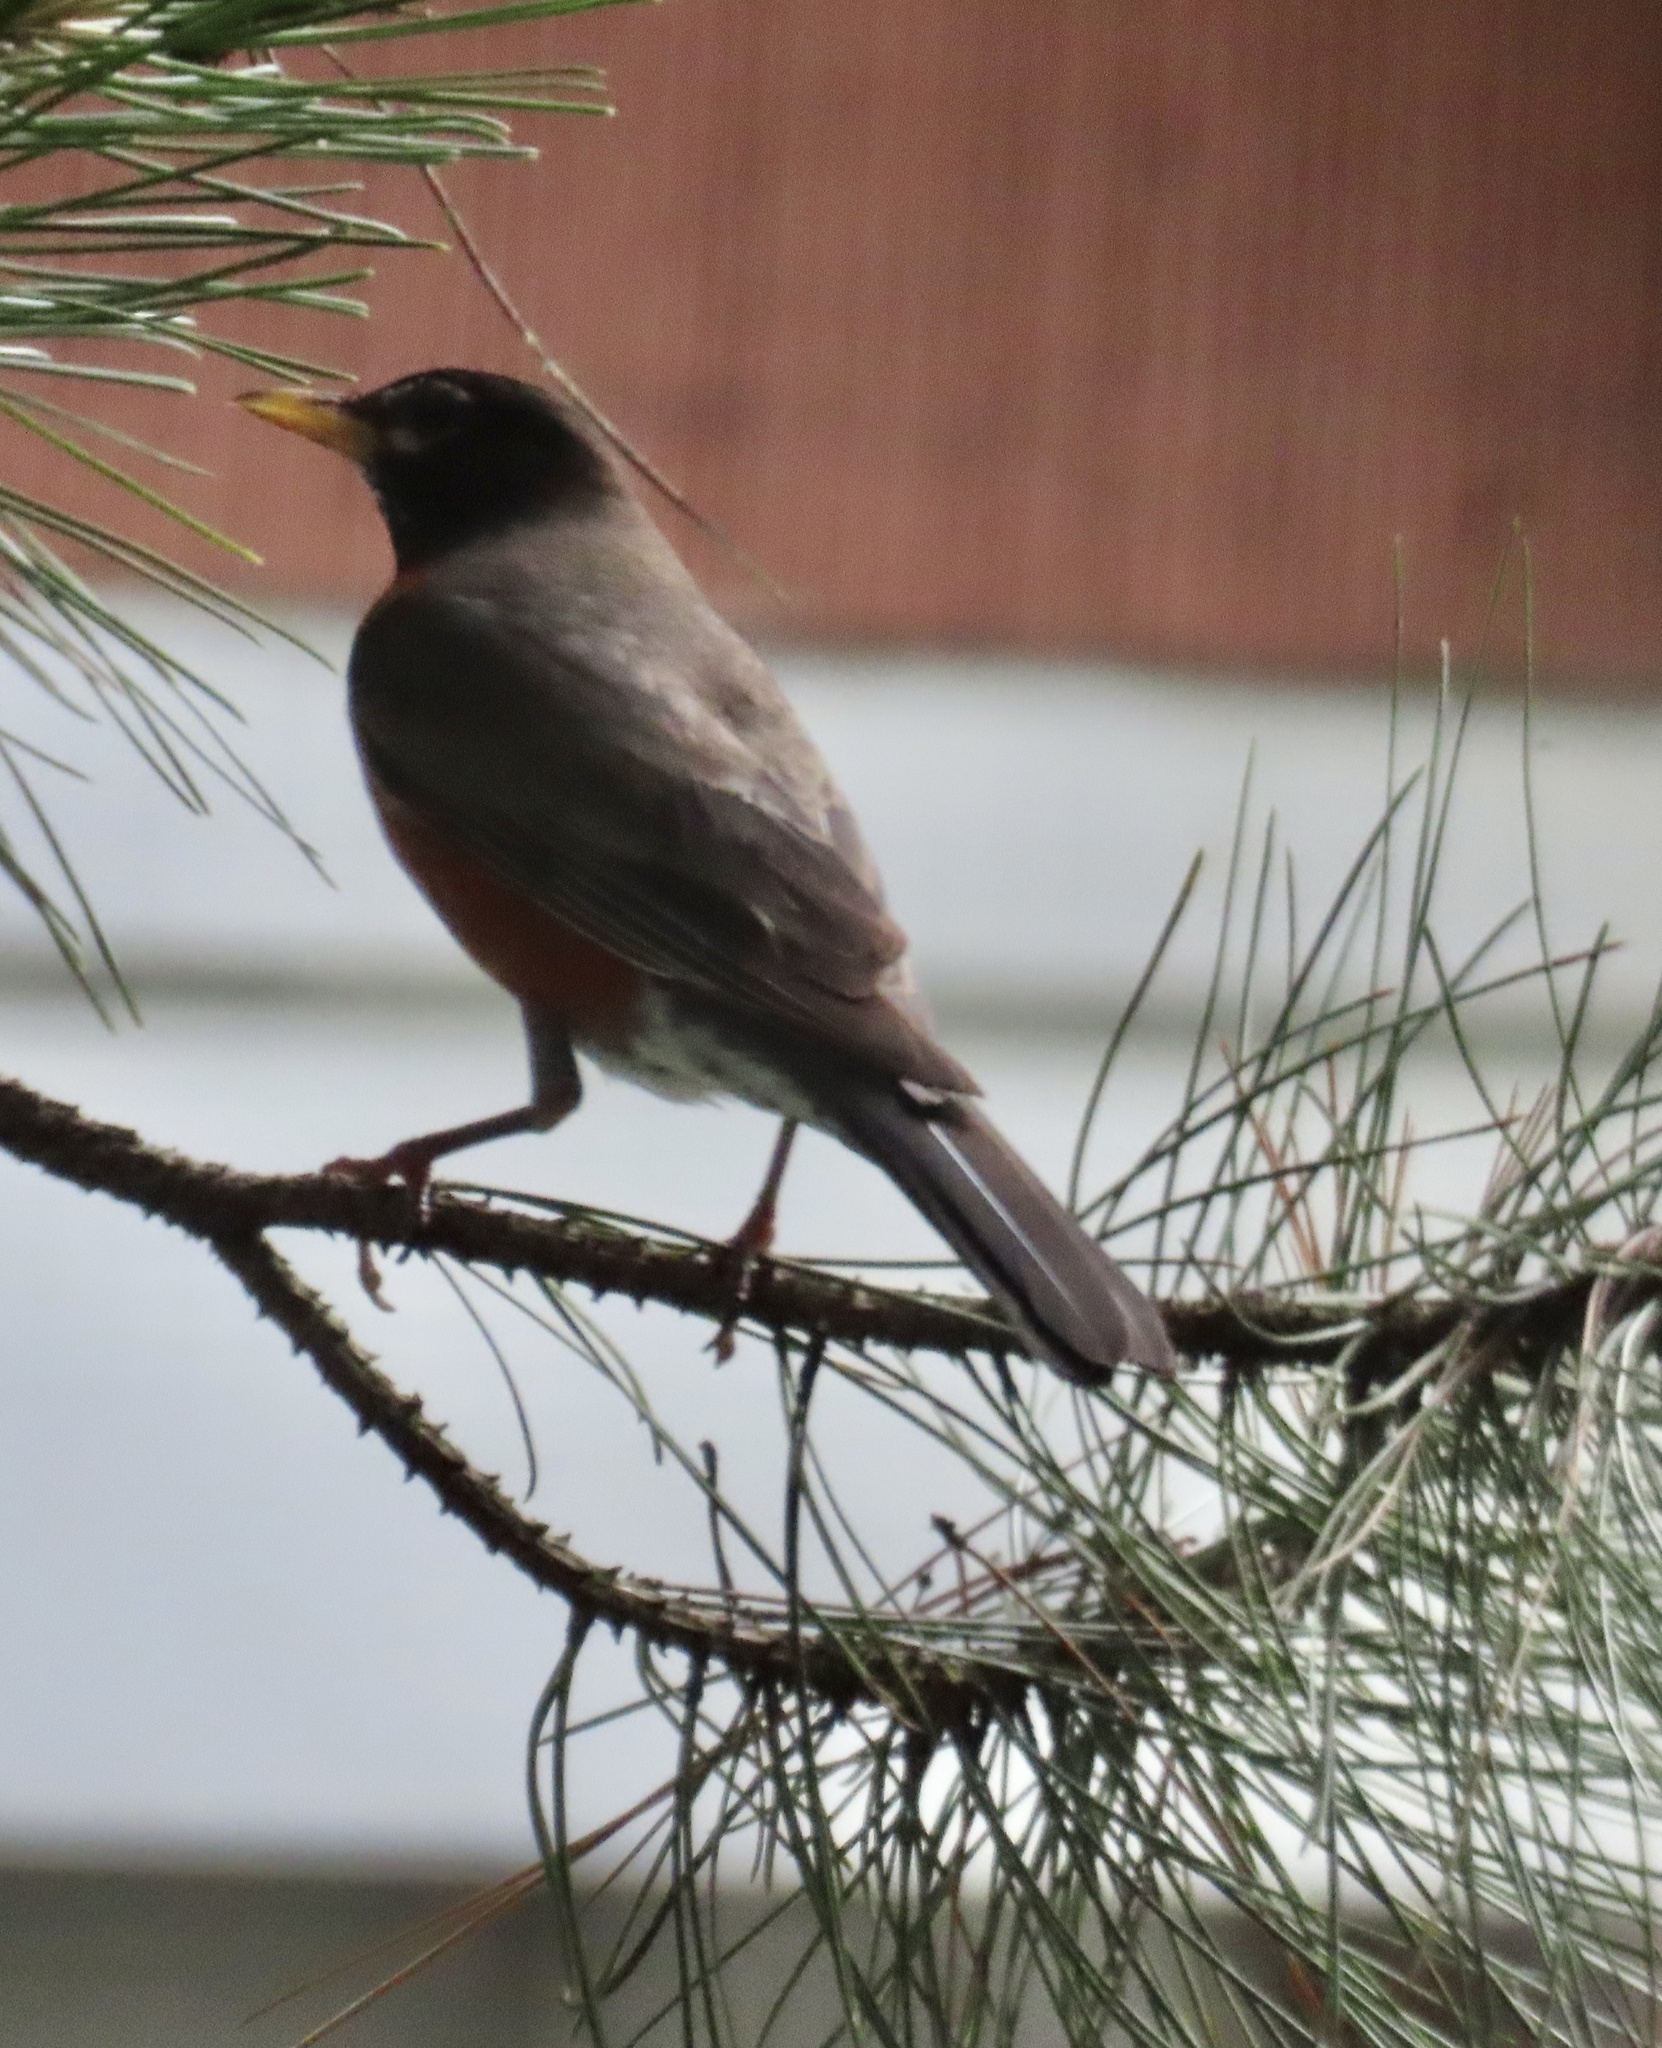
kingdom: Animalia
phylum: Chordata
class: Aves
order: Passeriformes
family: Turdidae
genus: Turdus
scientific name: Turdus migratorius
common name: American robin
